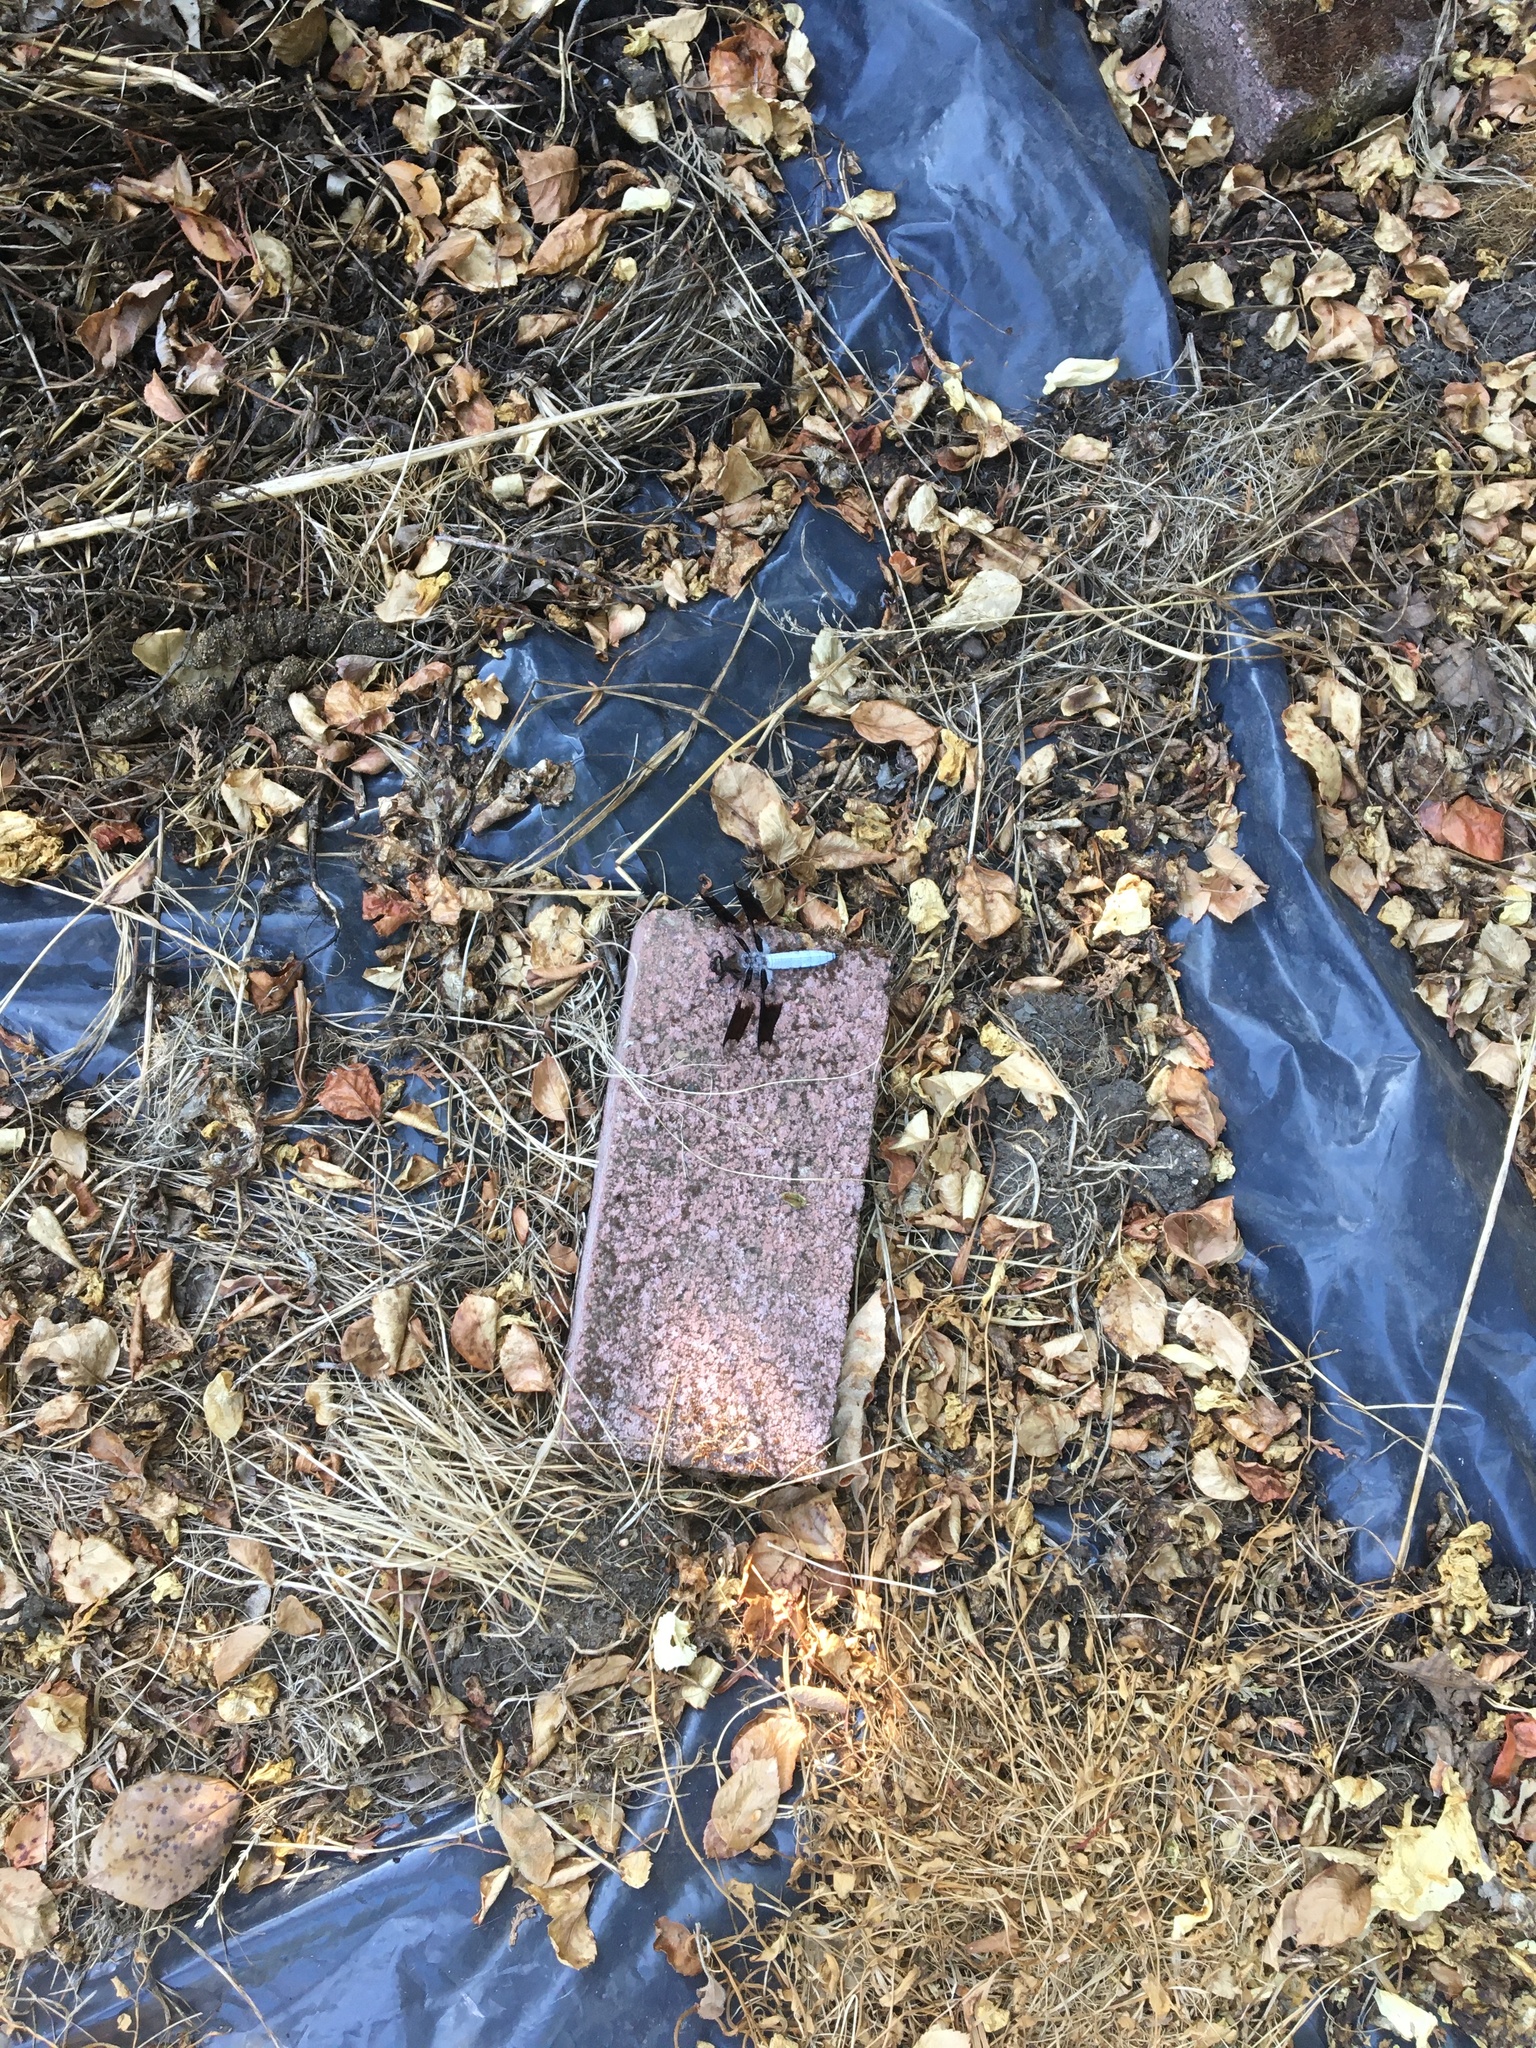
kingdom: Animalia
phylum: Arthropoda
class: Insecta
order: Odonata
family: Libellulidae
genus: Plathemis
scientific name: Plathemis lydia
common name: Common whitetail
